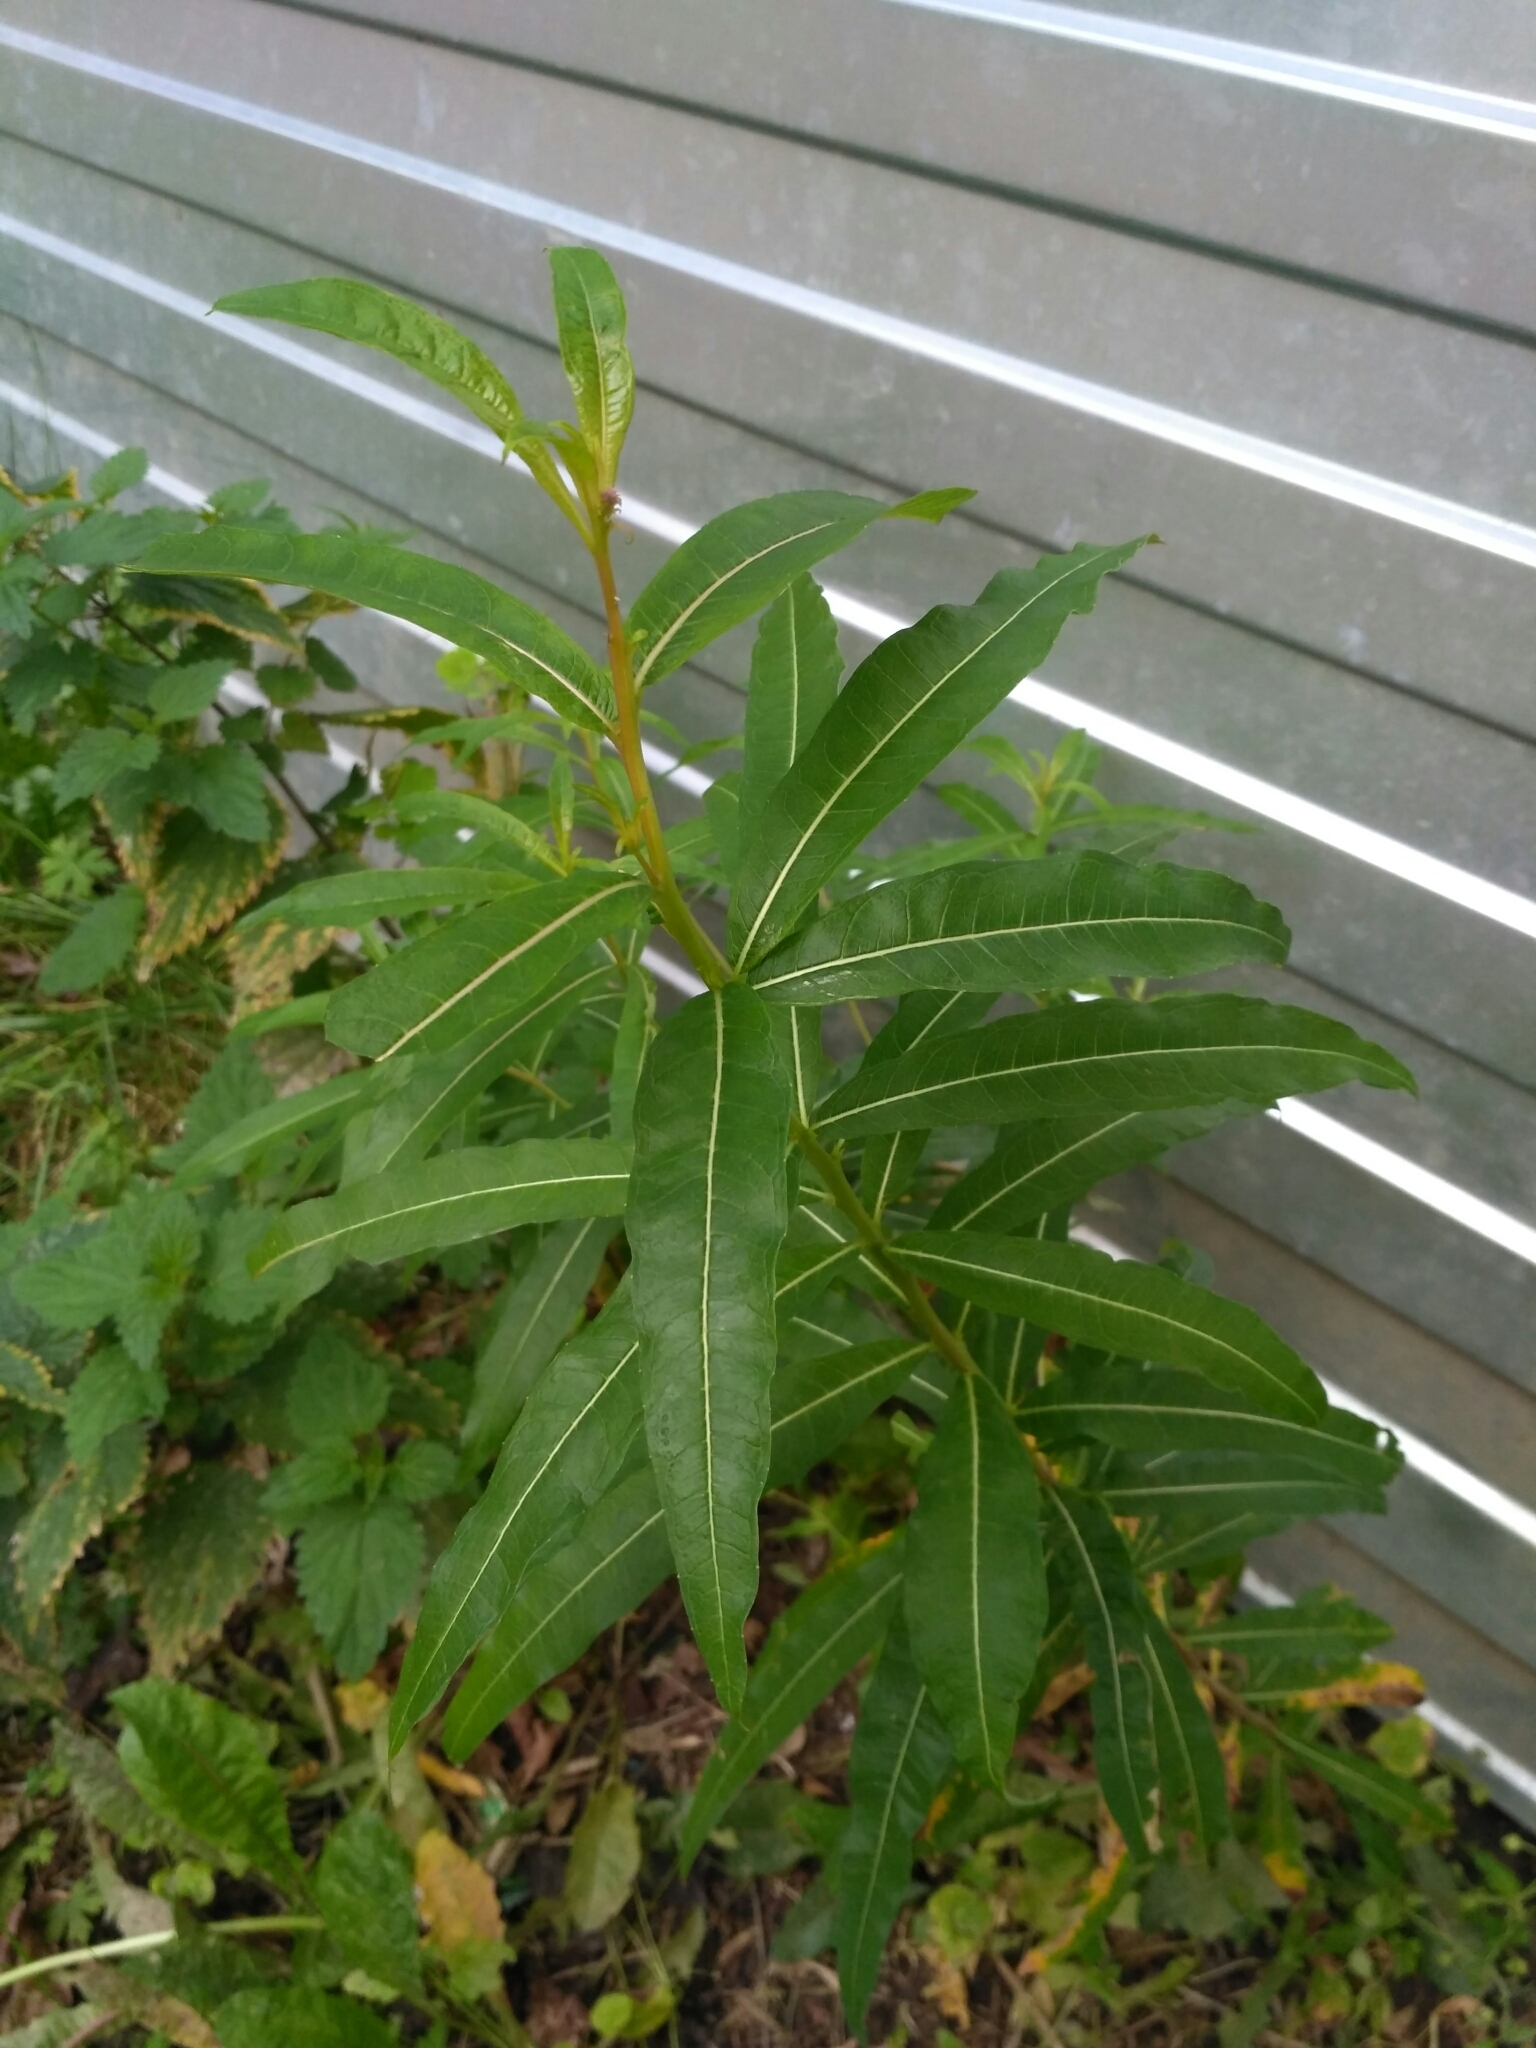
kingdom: Plantae
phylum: Tracheophyta
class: Magnoliopsida
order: Myrtales
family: Onagraceae
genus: Chamaenerion
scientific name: Chamaenerion angustifolium
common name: Fireweed
